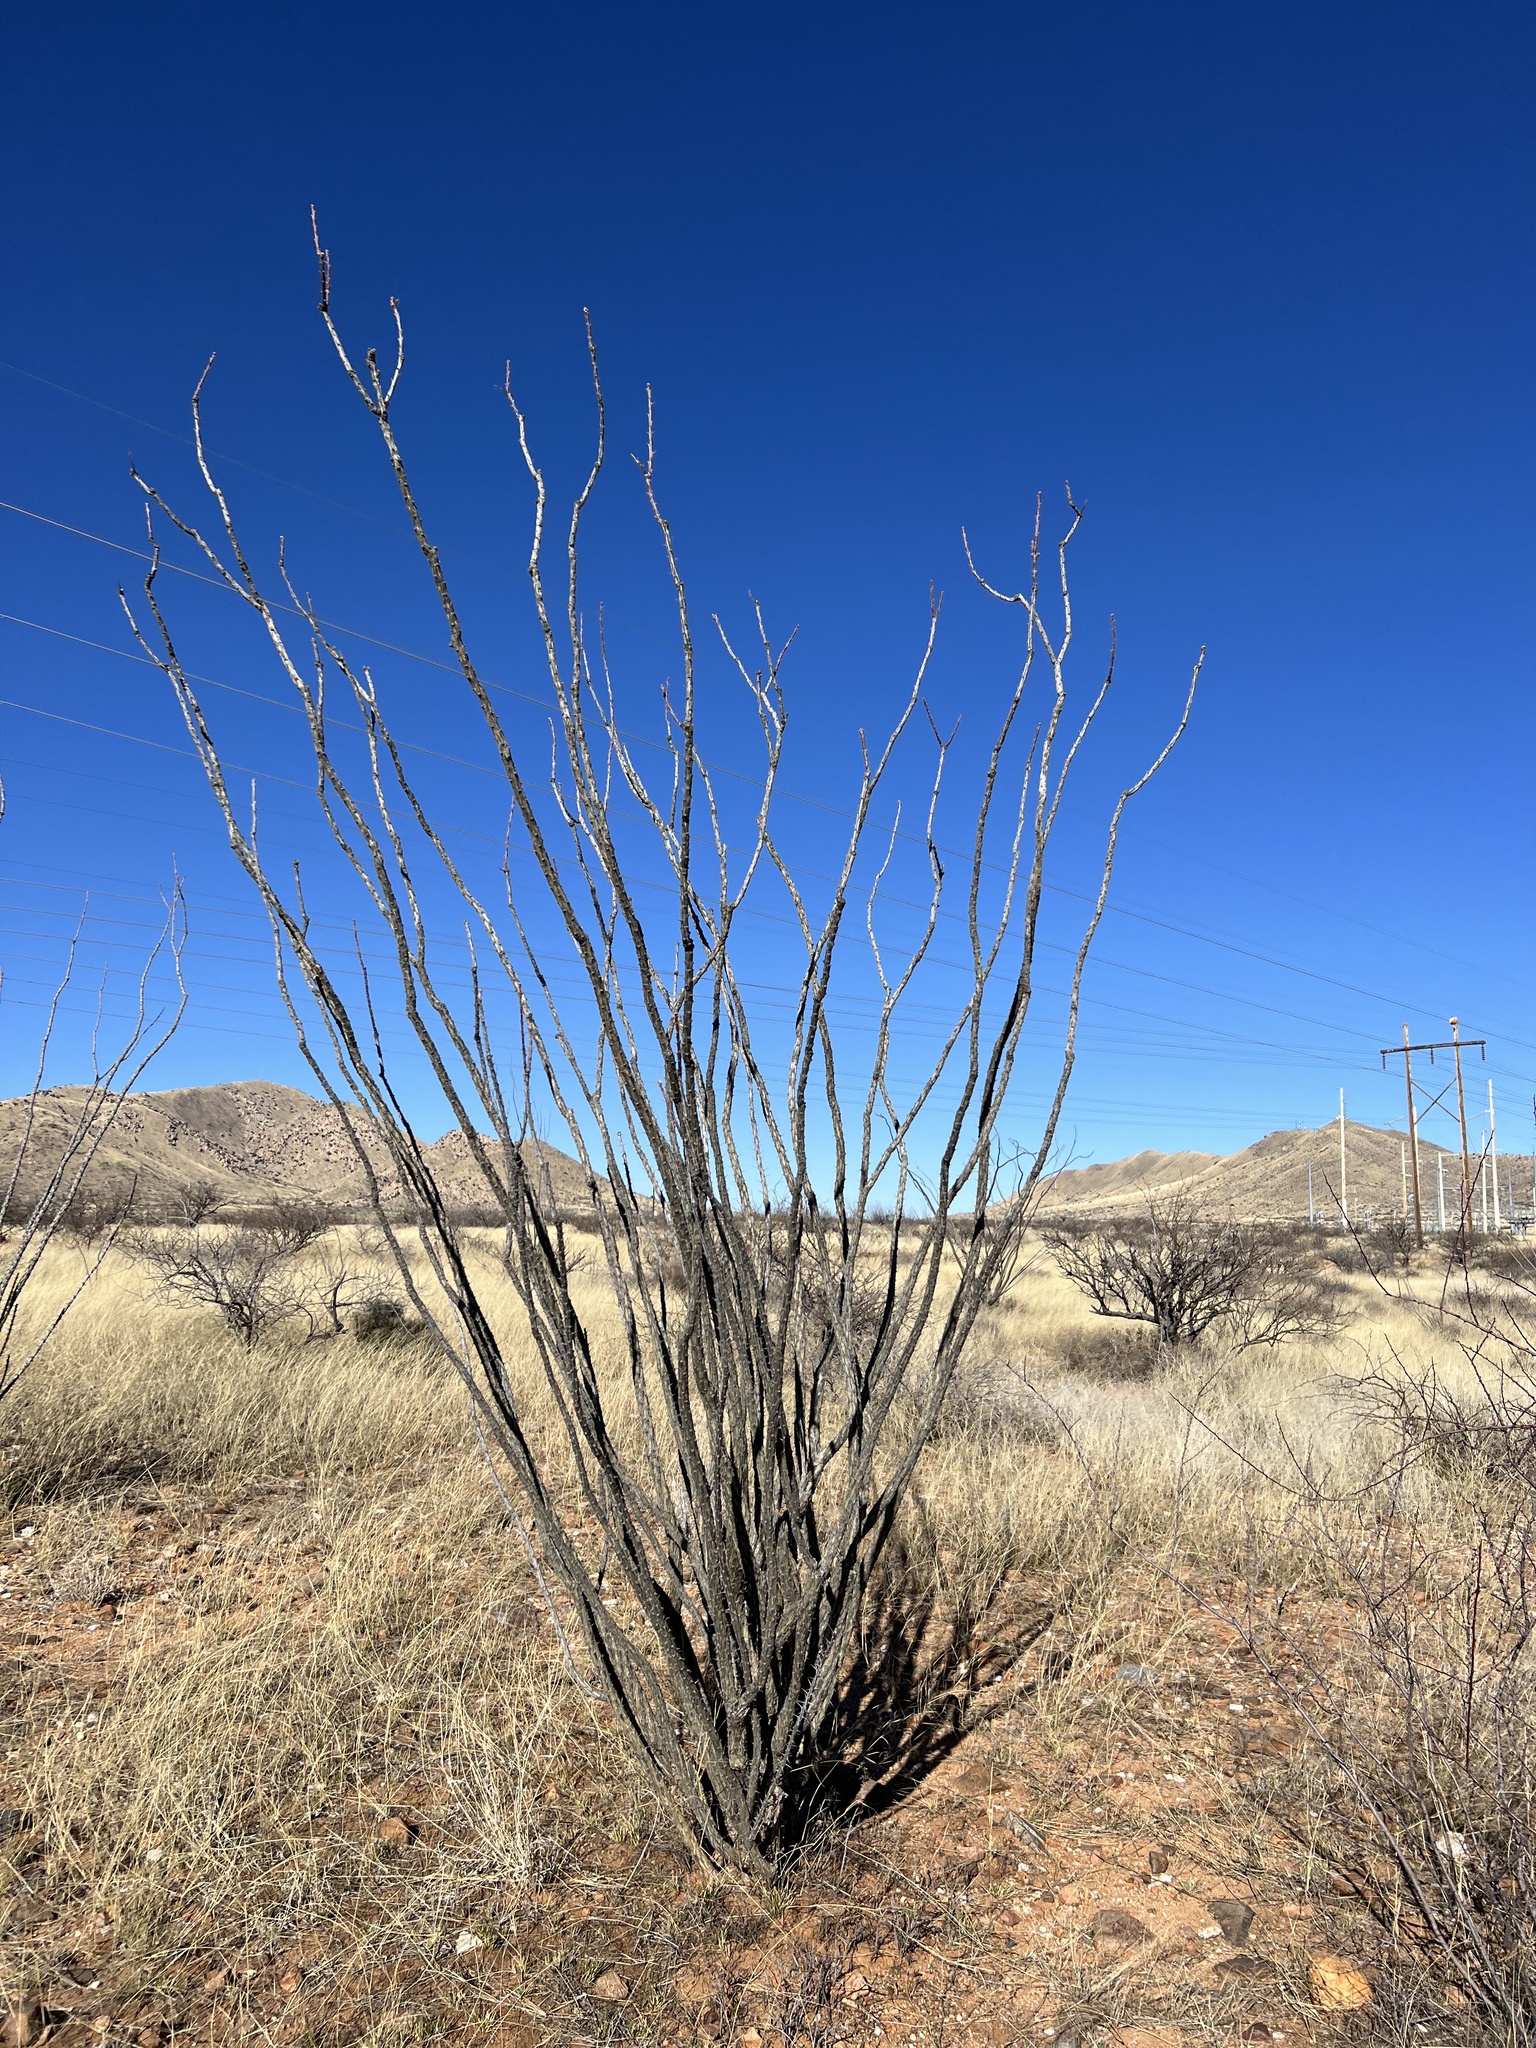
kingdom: Plantae
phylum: Tracheophyta
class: Magnoliopsida
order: Ericales
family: Fouquieriaceae
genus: Fouquieria
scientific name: Fouquieria splendens
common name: Vine-cactus
